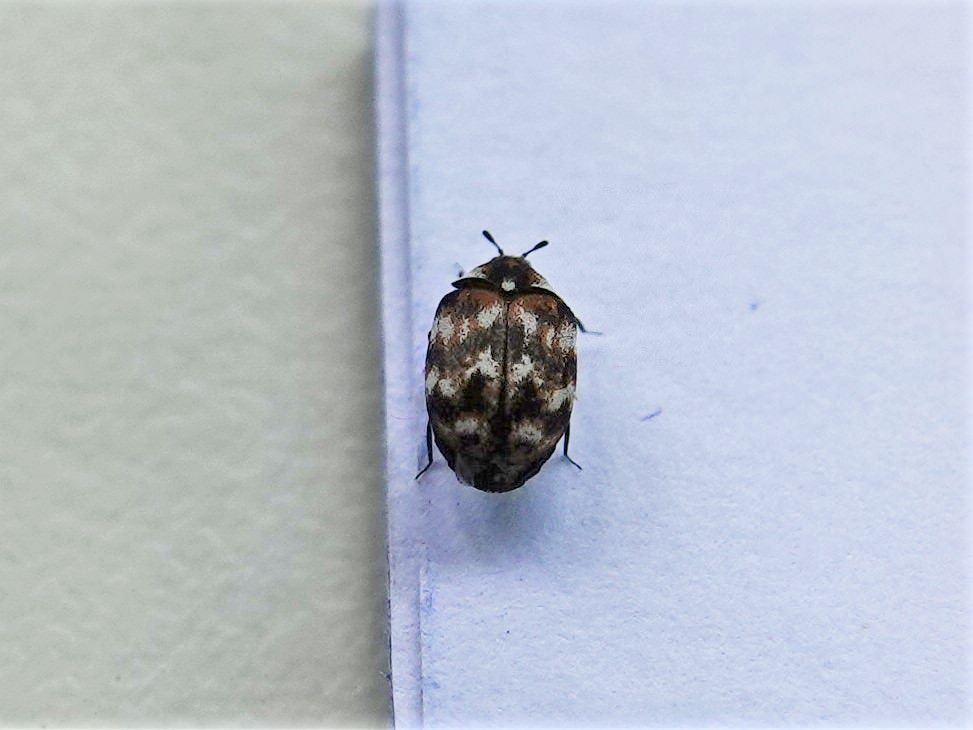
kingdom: Animalia
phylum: Arthropoda
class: Insecta
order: Coleoptera
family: Dermestidae
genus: Anthrenus
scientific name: Anthrenus verbasci
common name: Varied carpet beetle
